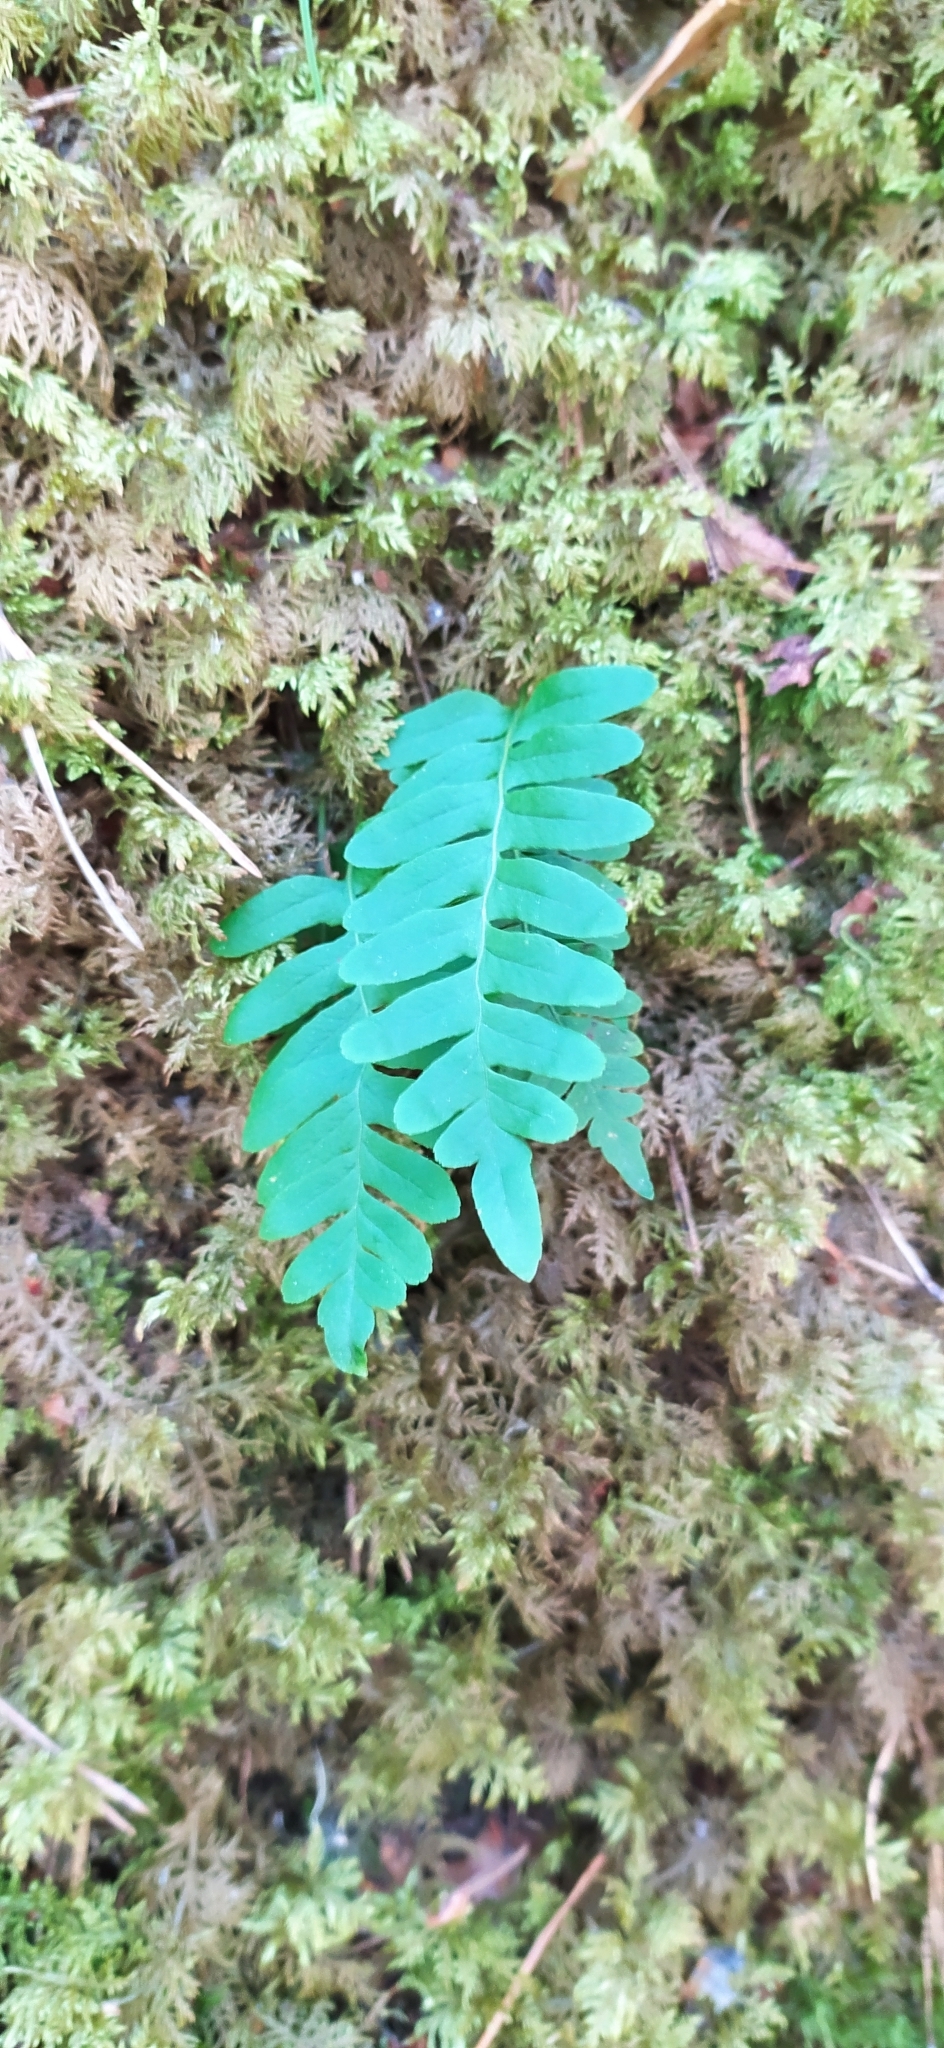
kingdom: Plantae
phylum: Tracheophyta
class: Polypodiopsida
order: Polypodiales
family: Polypodiaceae
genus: Polypodium
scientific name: Polypodium vulgare
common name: Common polypody
